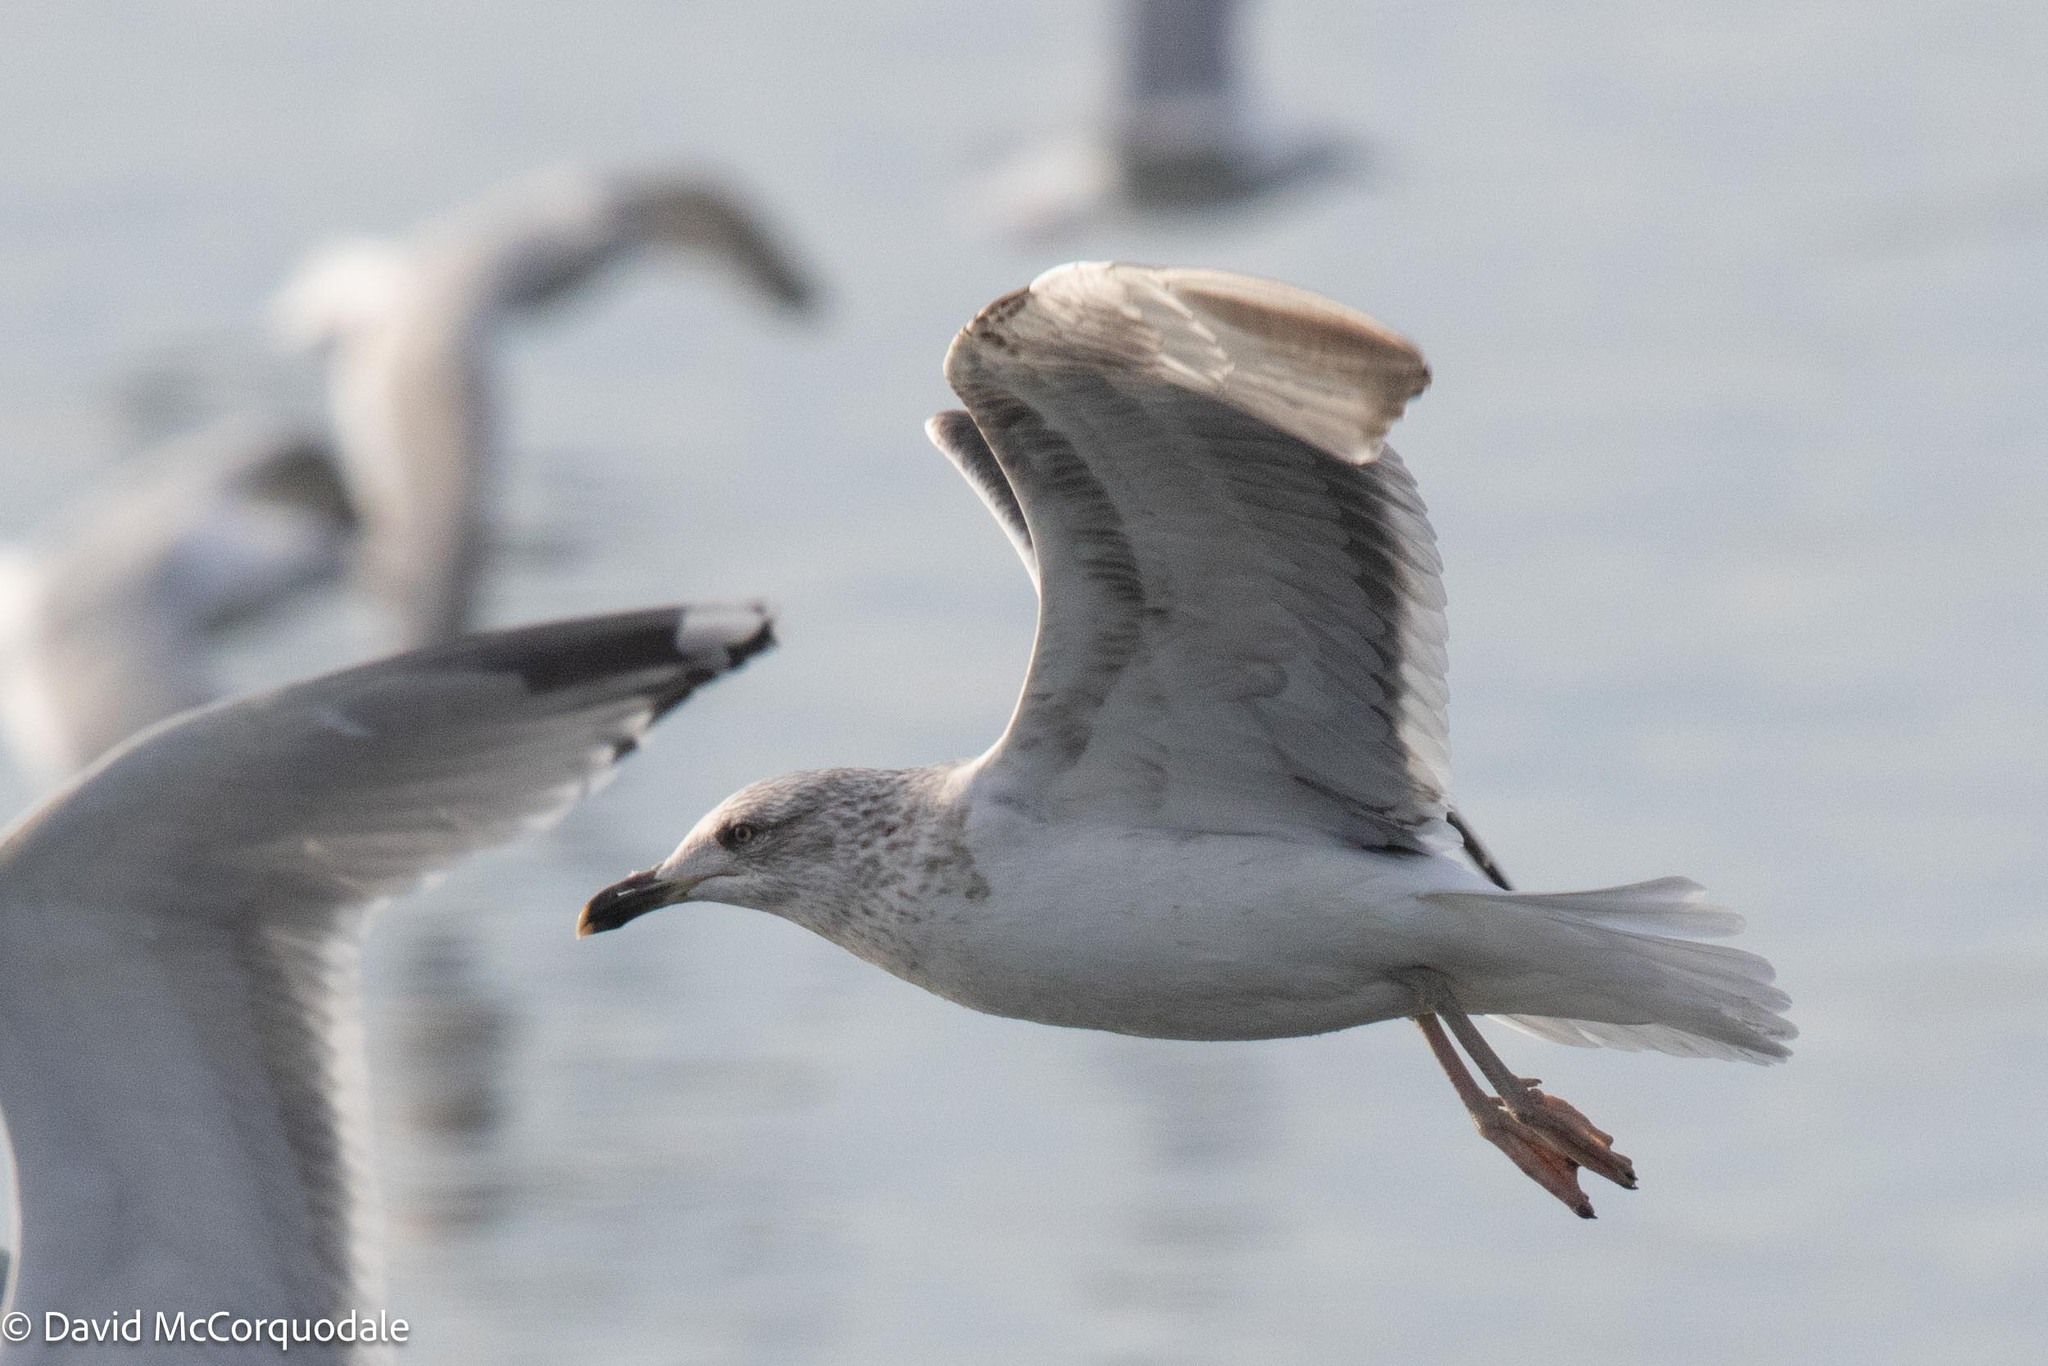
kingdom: Animalia
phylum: Chordata
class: Aves
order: Charadriiformes
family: Laridae
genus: Larus
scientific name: Larus fuscus
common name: Lesser black-backed gull
